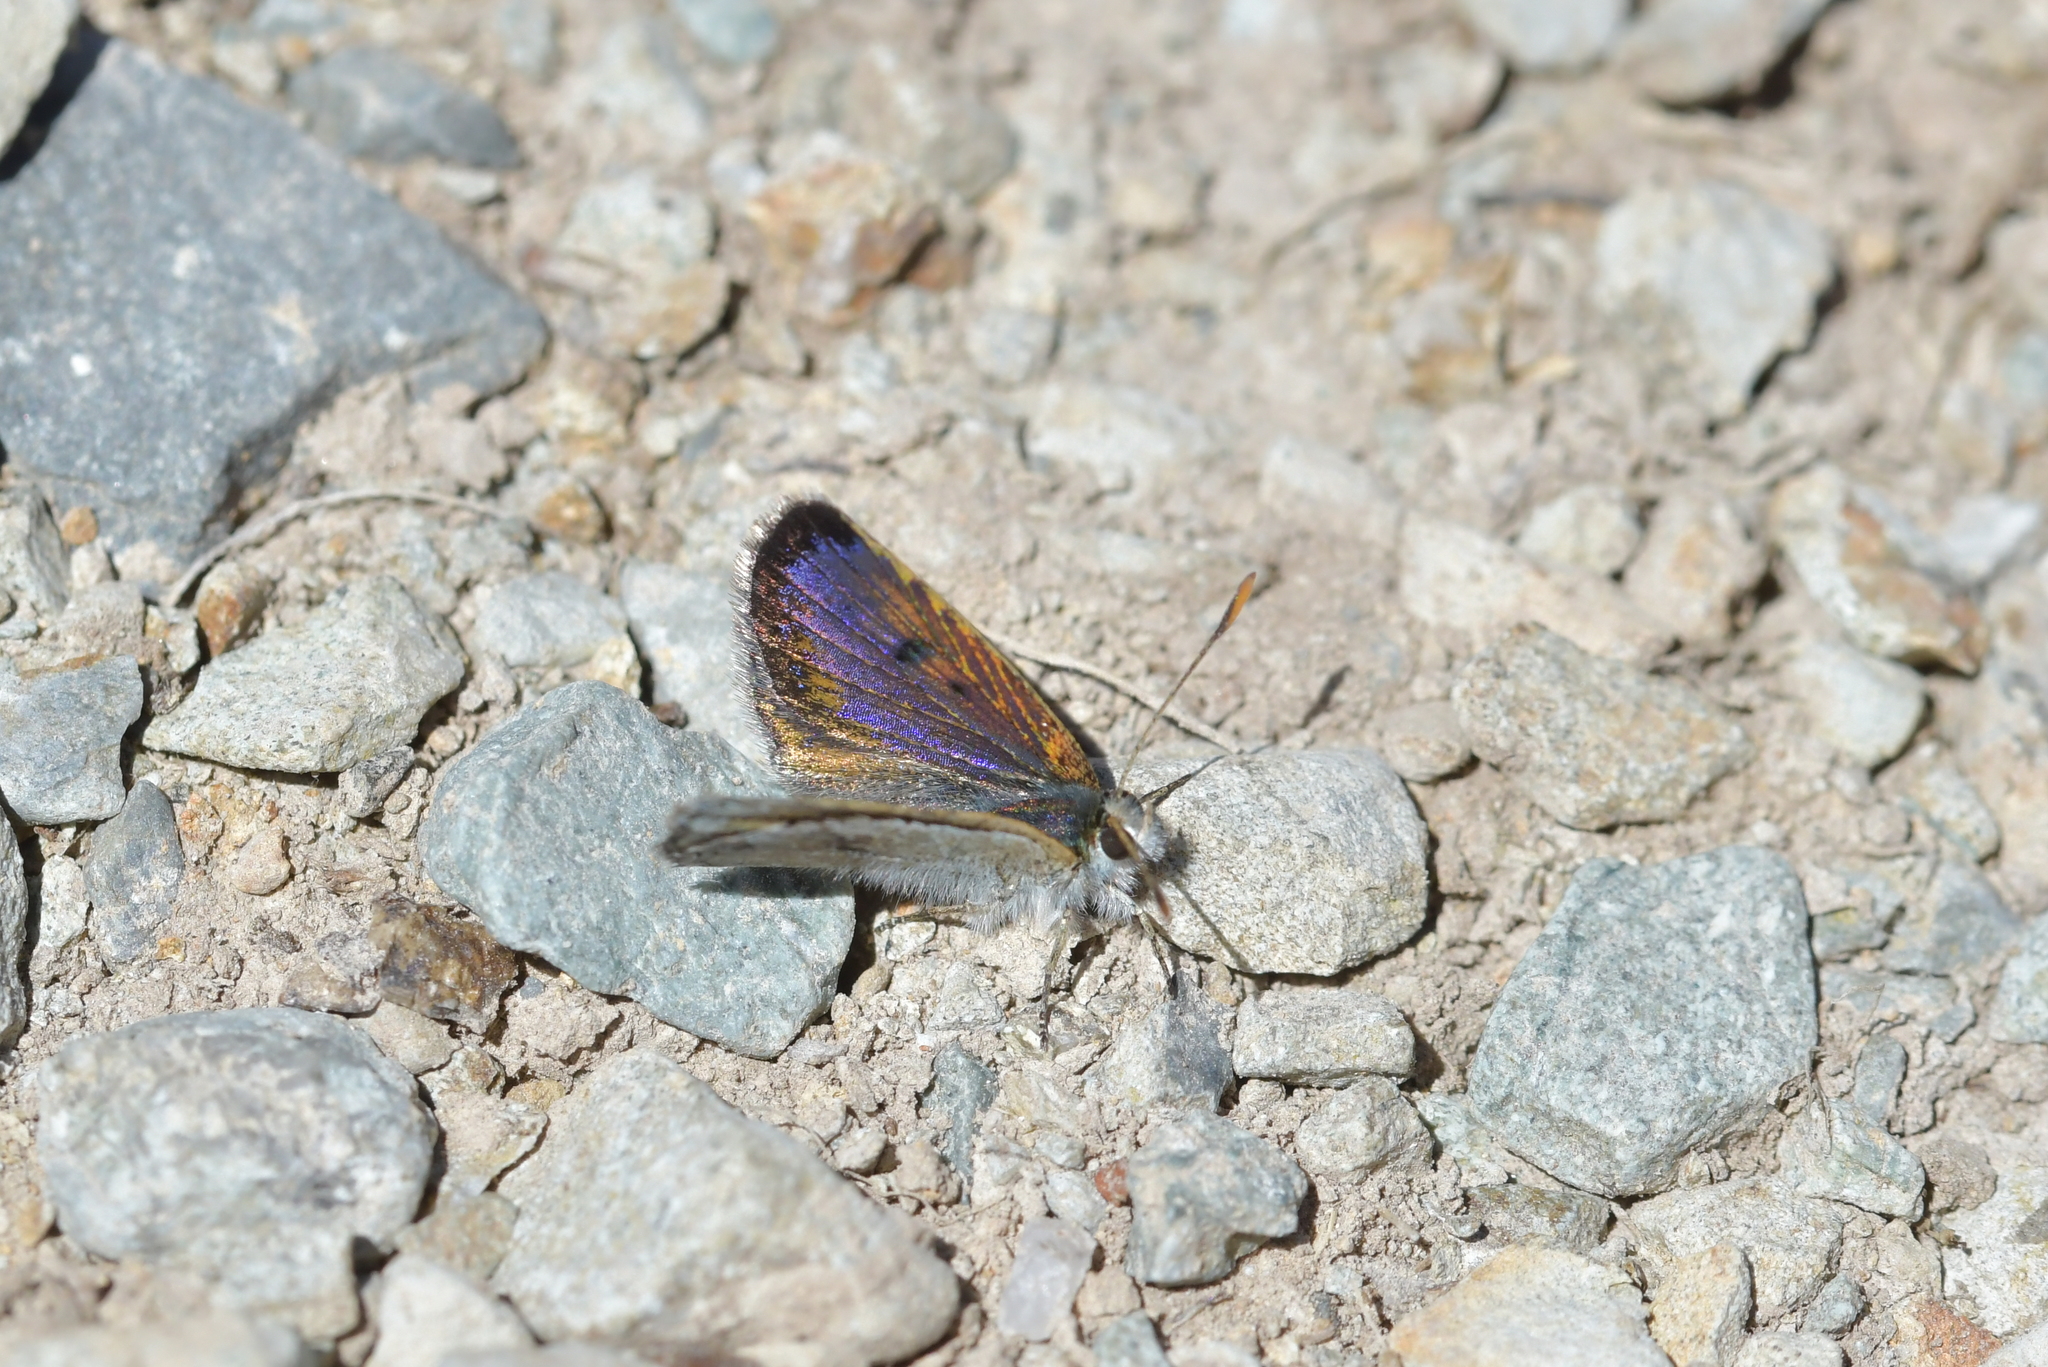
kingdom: Animalia
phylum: Arthropoda
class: Insecta
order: Lepidoptera
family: Lycaenidae
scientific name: Lycaenidae
